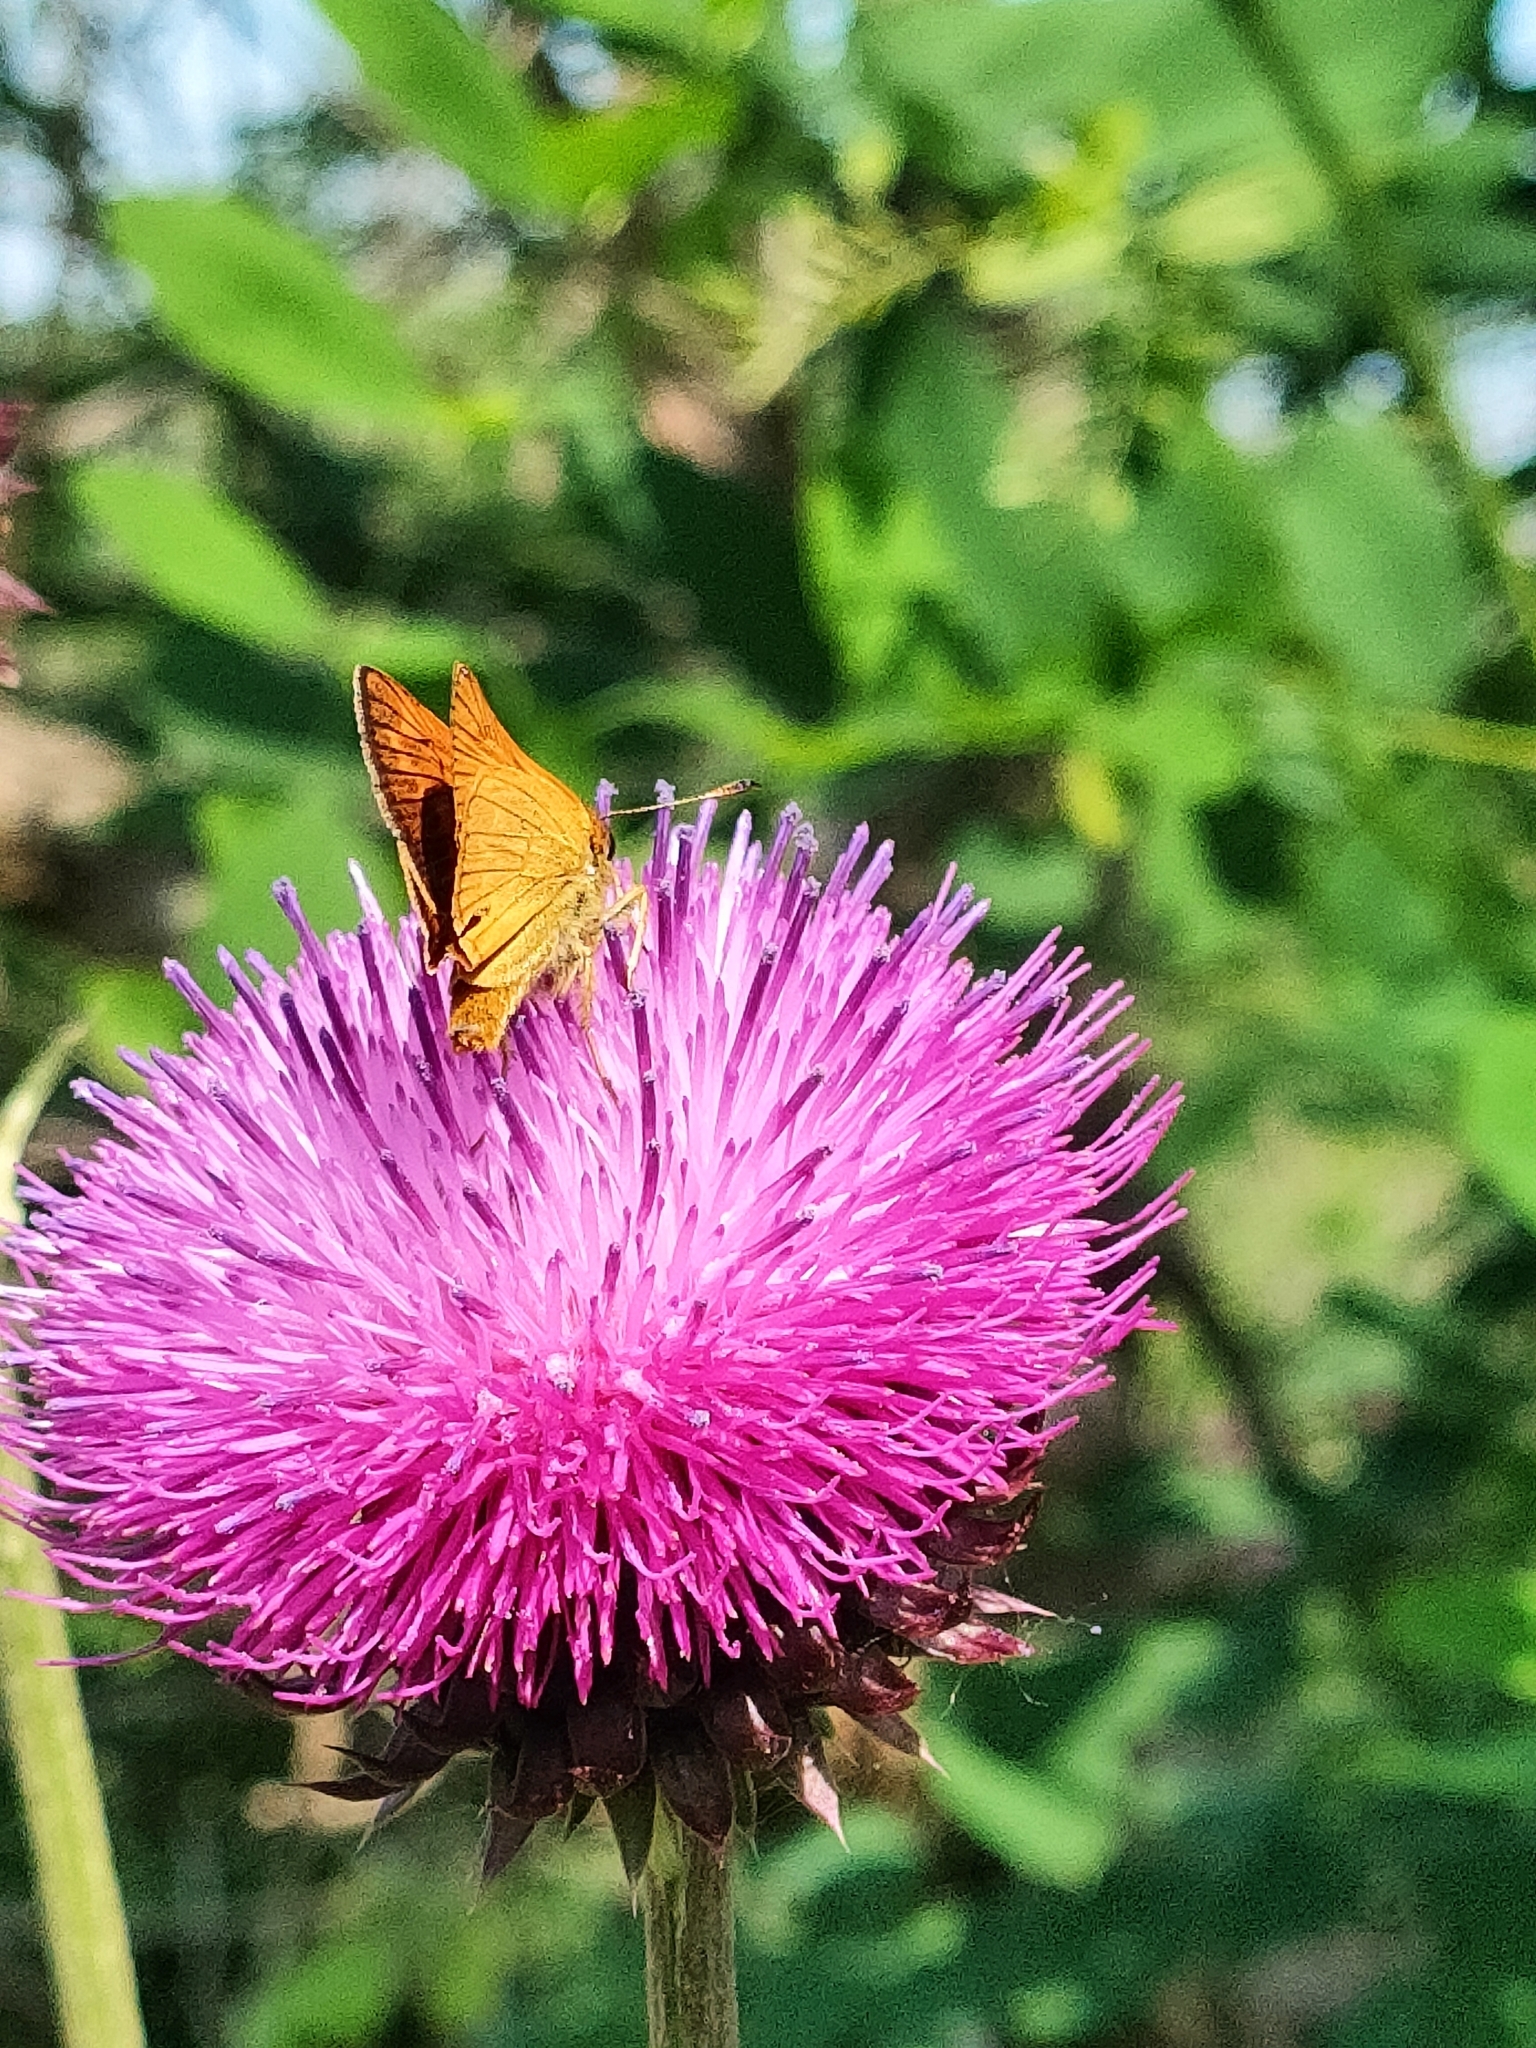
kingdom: Animalia
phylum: Arthropoda
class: Insecta
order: Lepidoptera
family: Hesperiidae
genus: Ochlodes
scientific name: Ochlodes venata
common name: Large skipper
